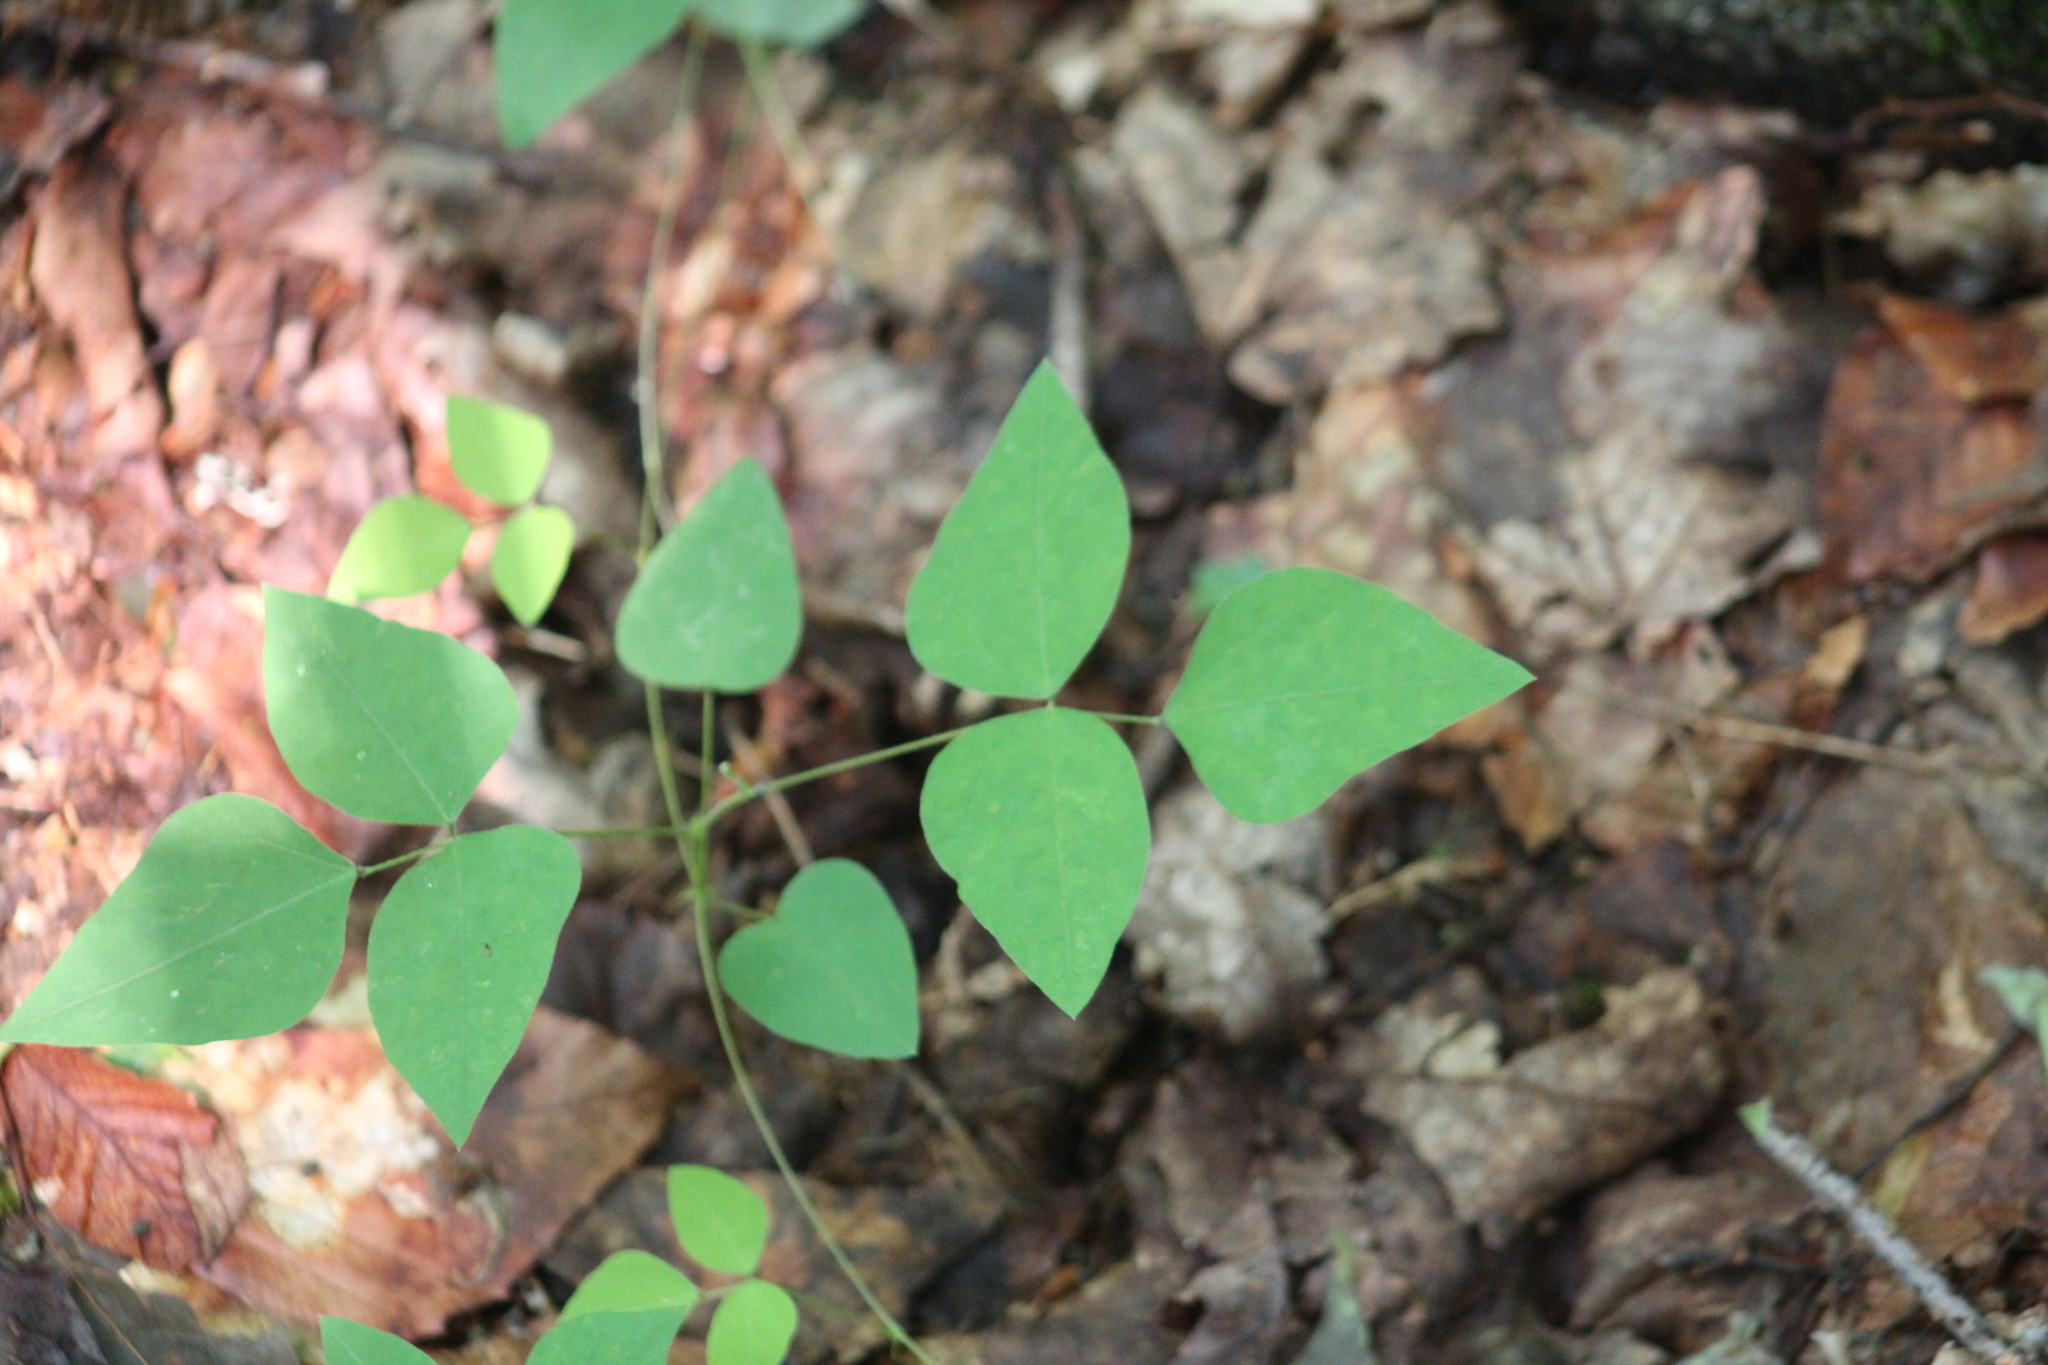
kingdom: Plantae
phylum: Tracheophyta
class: Magnoliopsida
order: Fabales
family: Fabaceae
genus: Amphicarpaea
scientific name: Amphicarpaea bracteata
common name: American hog peanut
